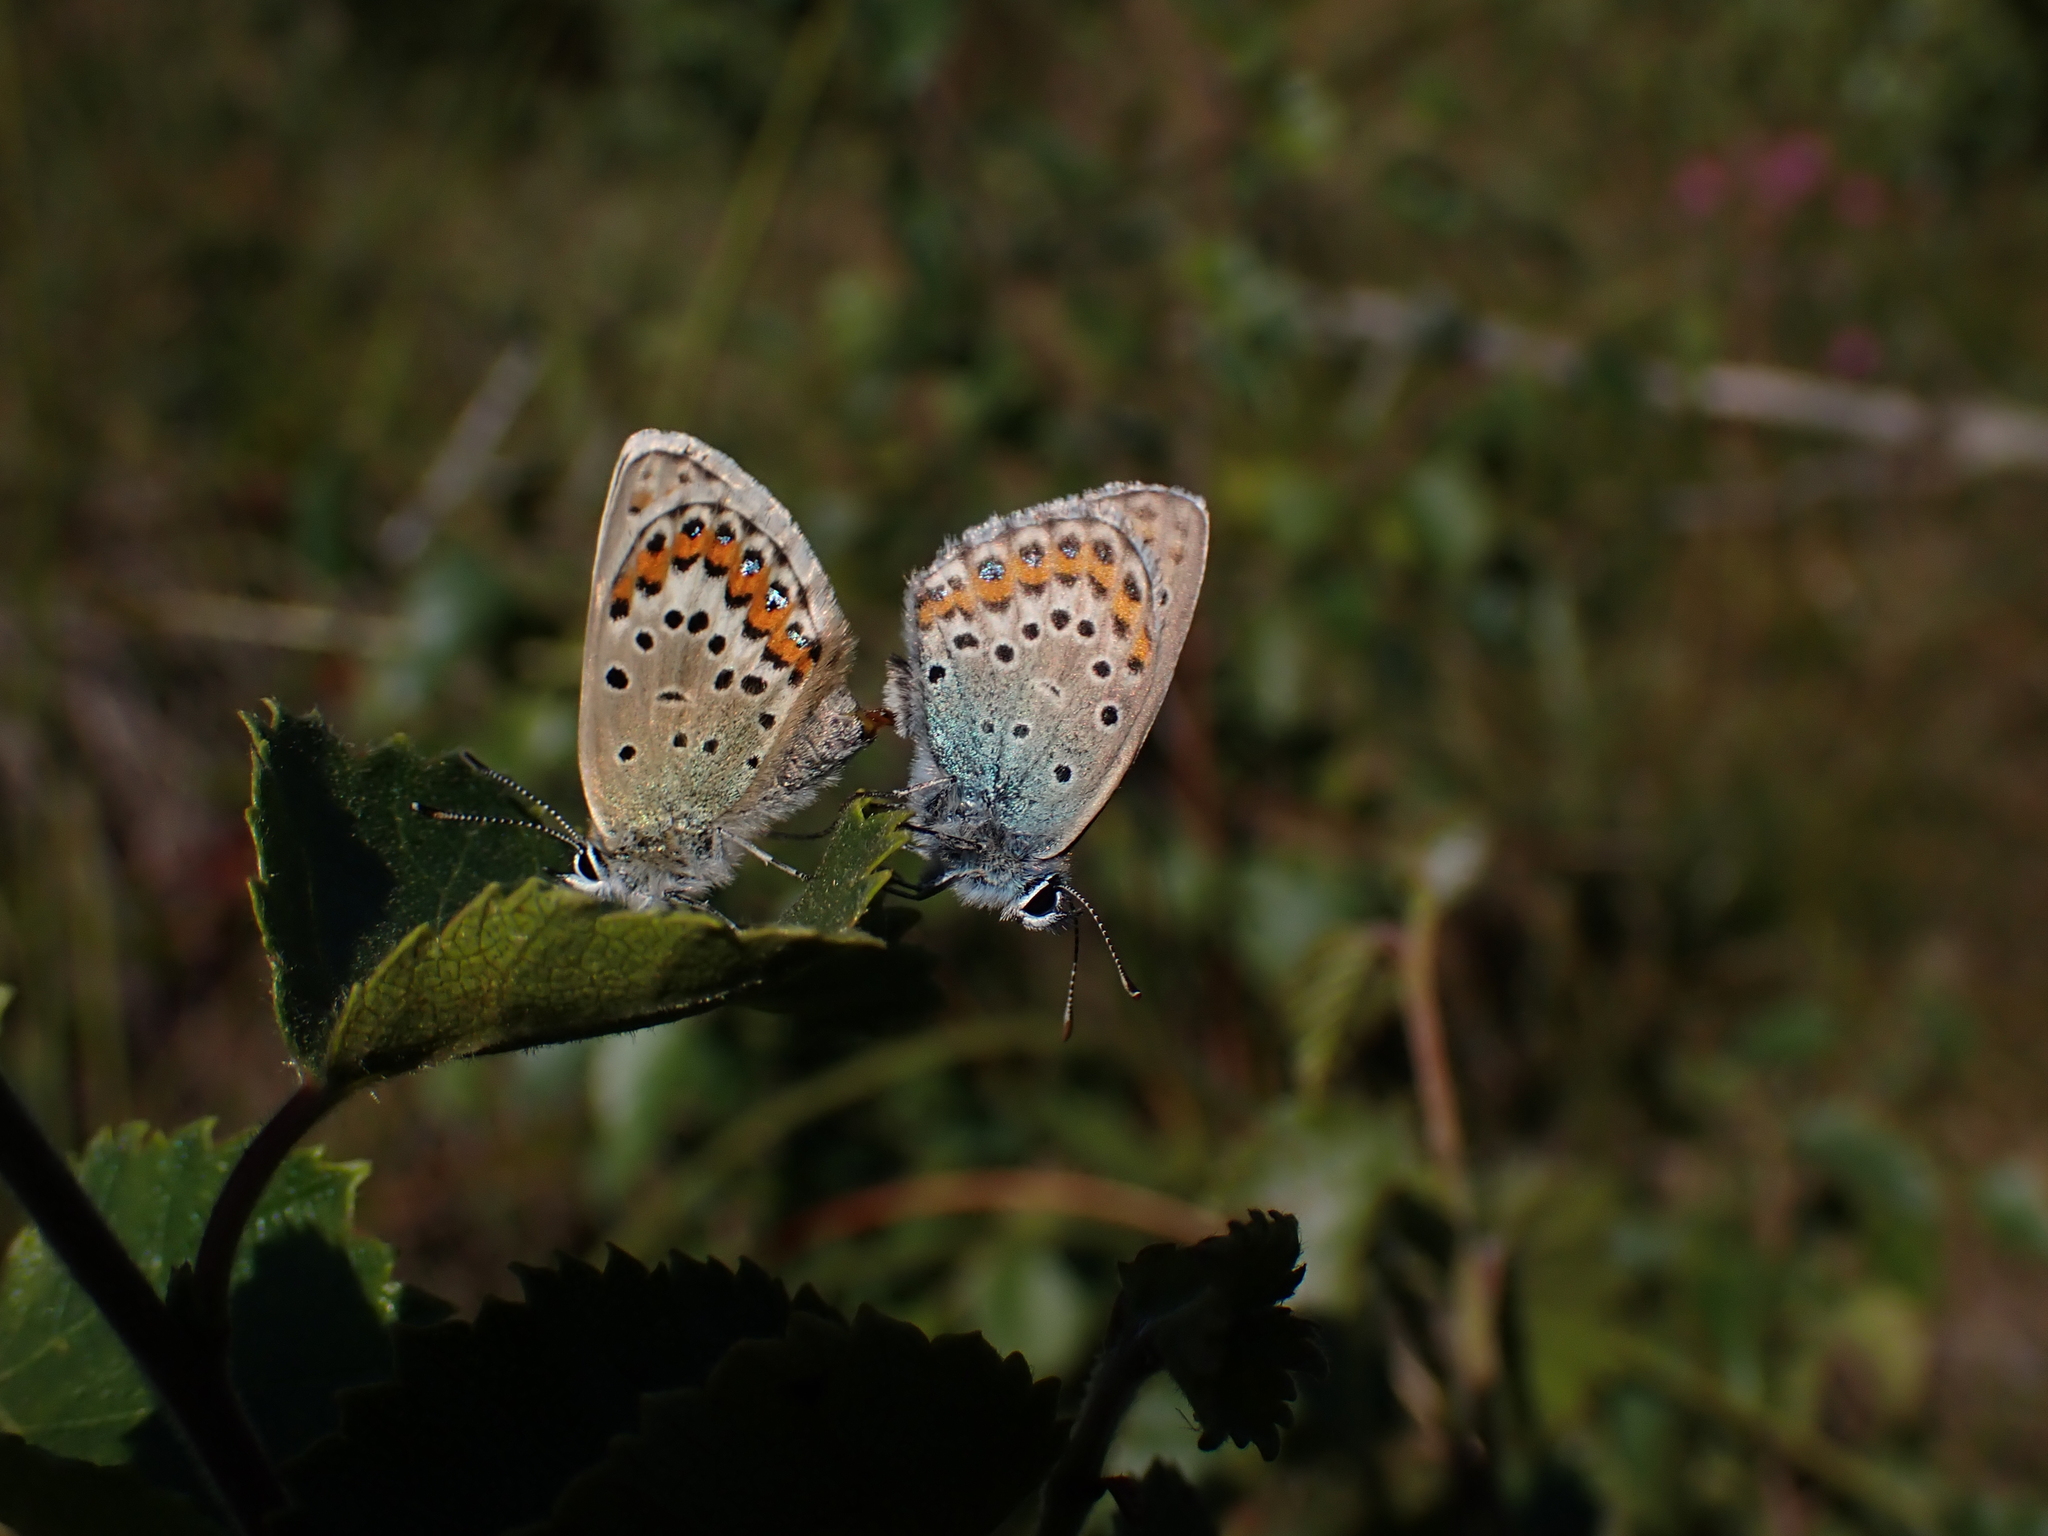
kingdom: Animalia
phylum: Arthropoda
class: Insecta
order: Lepidoptera
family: Lycaenidae
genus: Lycaeides
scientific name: Lycaeides idas
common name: Northern blue
